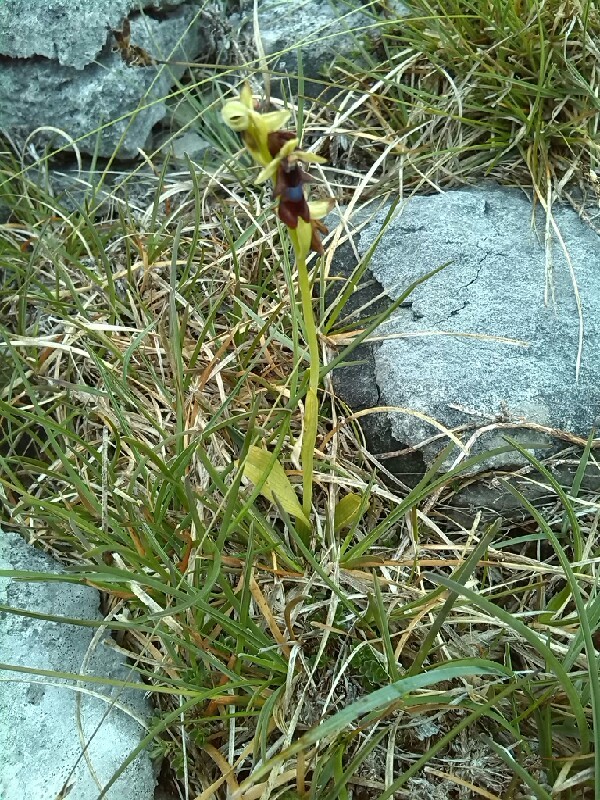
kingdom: Plantae
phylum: Tracheophyta
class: Liliopsida
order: Asparagales
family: Orchidaceae
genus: Ophrys
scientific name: Ophrys insectifera
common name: Fly orchid
